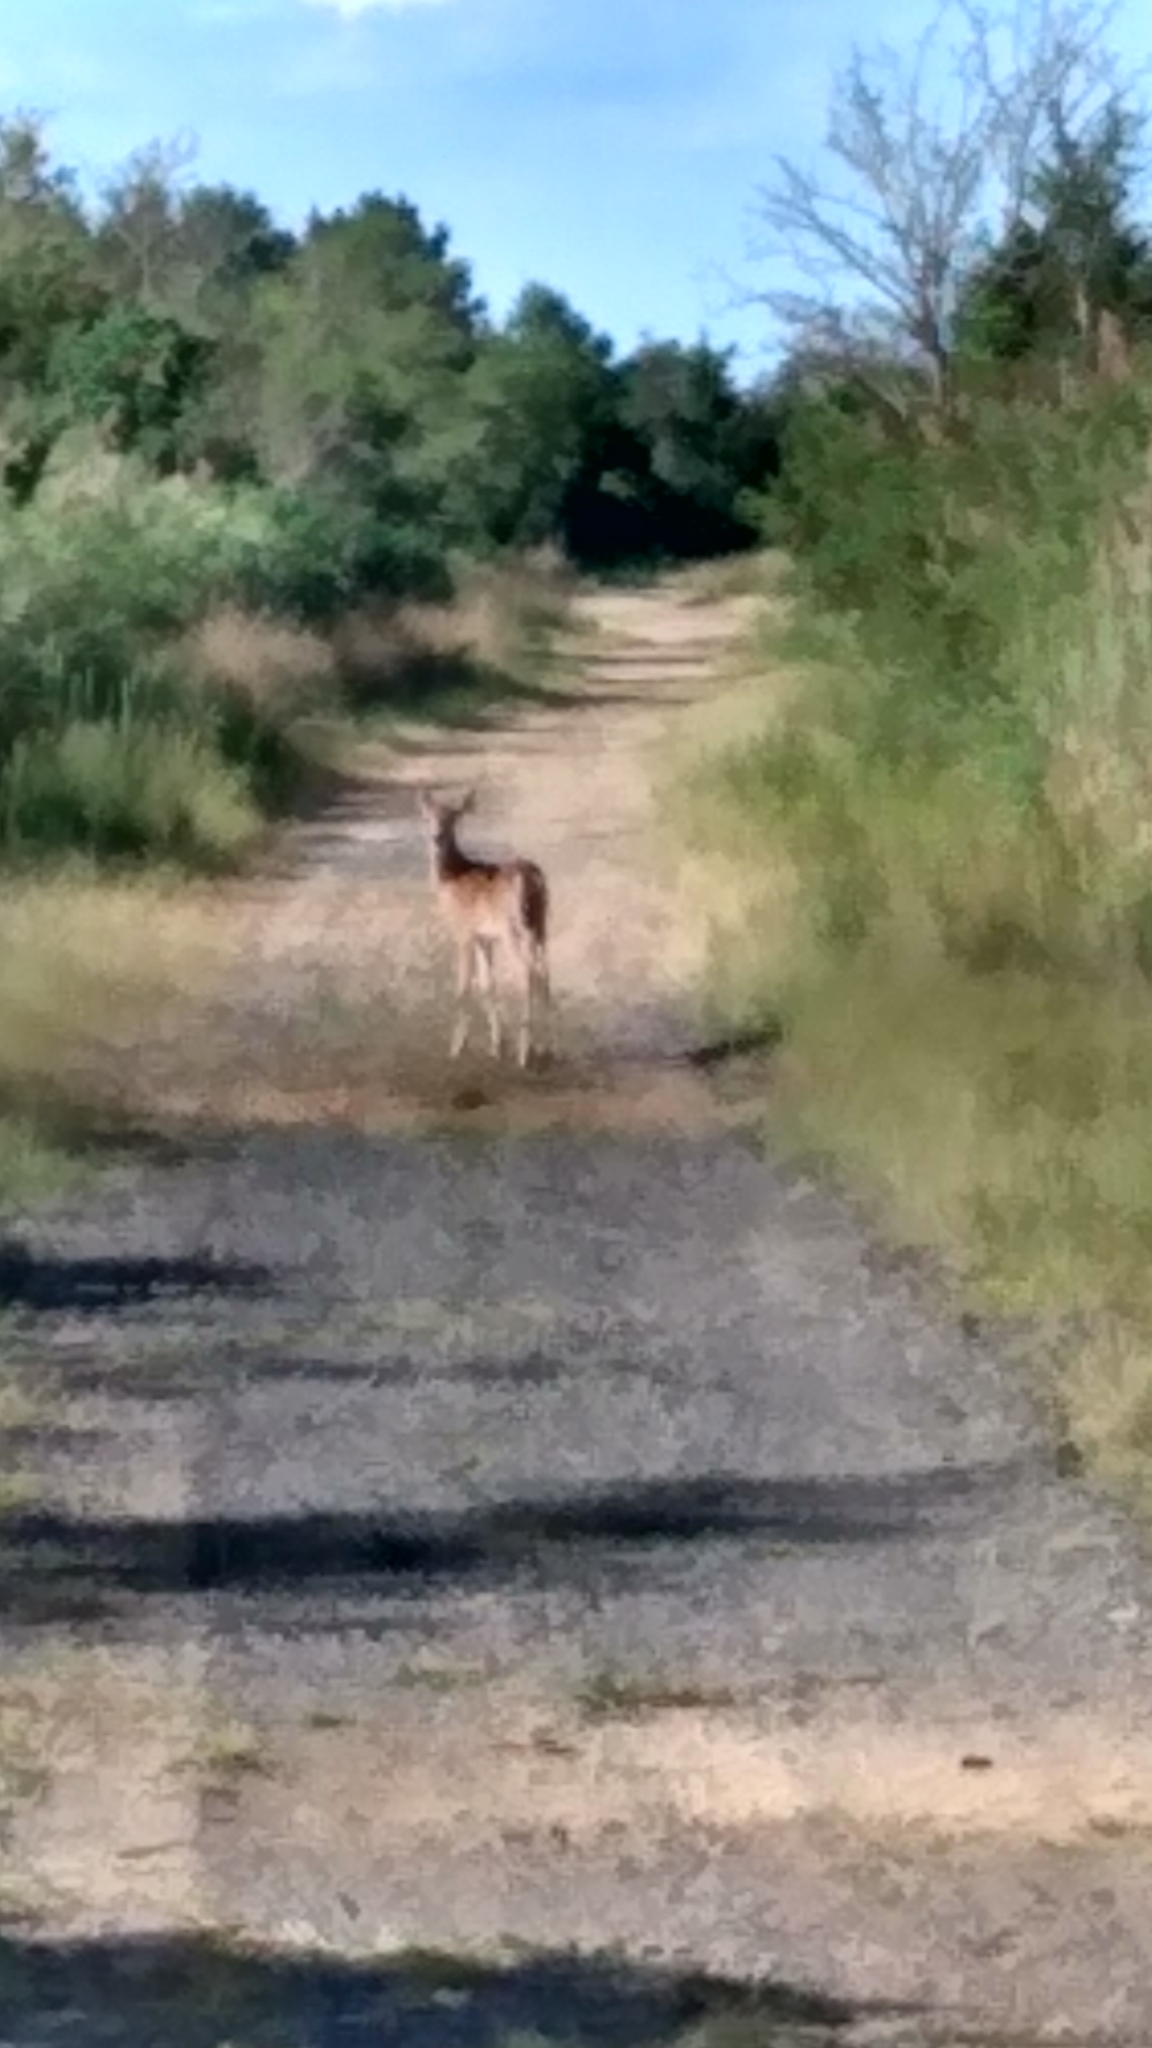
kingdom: Animalia
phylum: Chordata
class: Mammalia
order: Artiodactyla
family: Cervidae
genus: Odocoileus
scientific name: Odocoileus virginianus
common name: White-tailed deer
